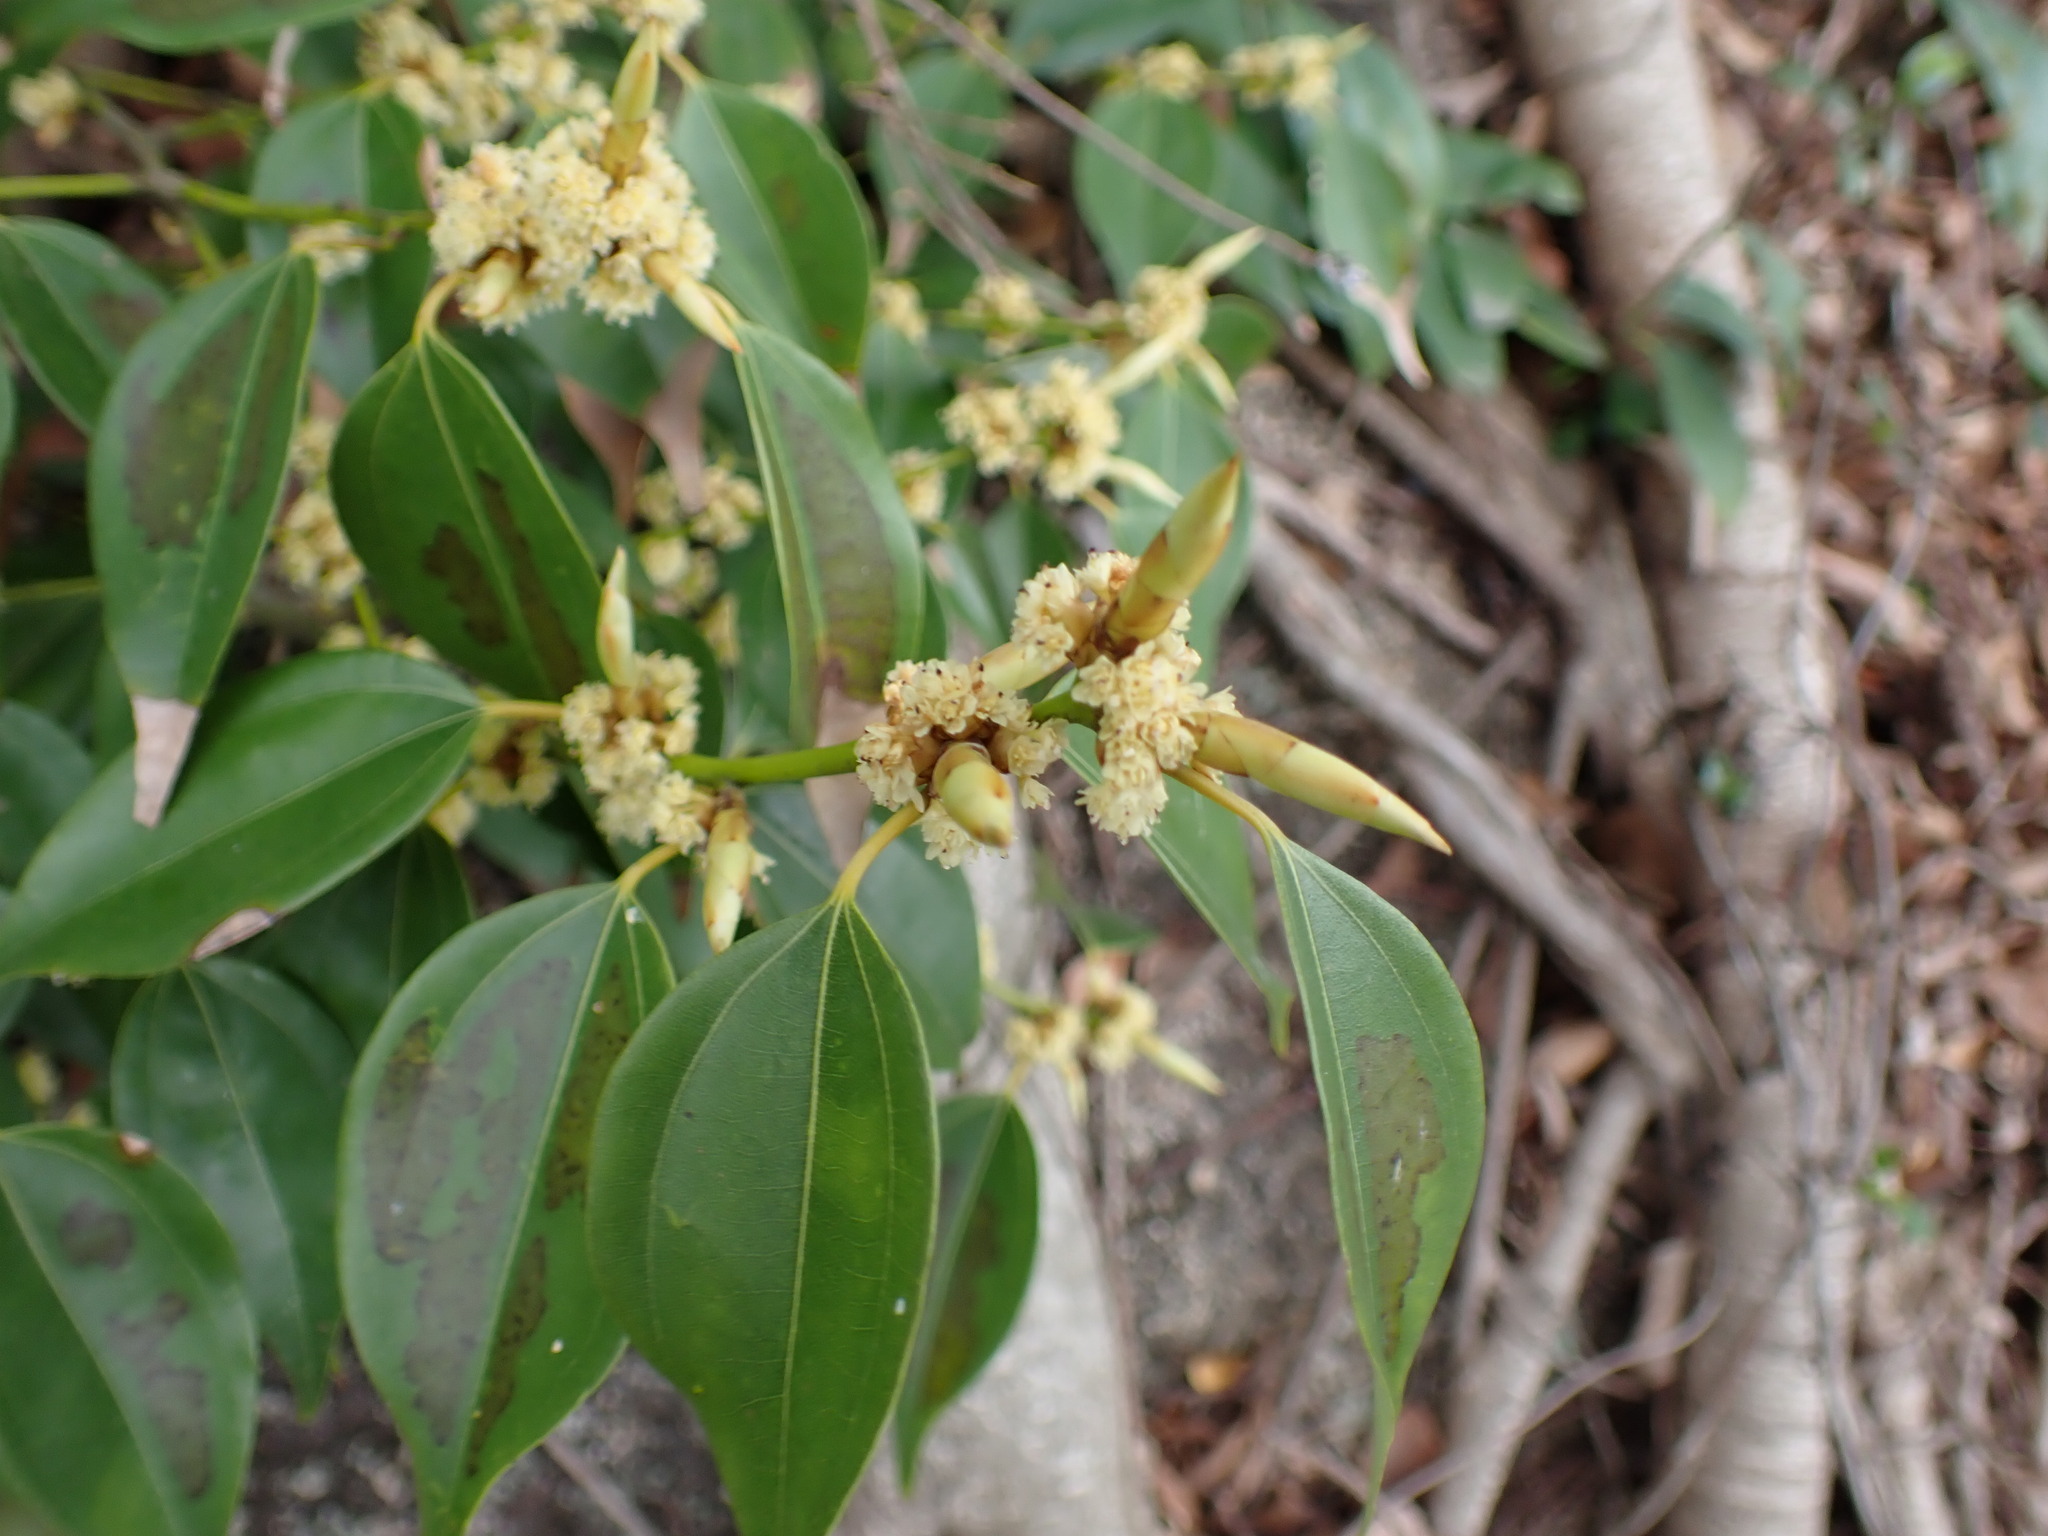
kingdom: Plantae
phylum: Tracheophyta
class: Magnoliopsida
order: Laurales
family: Lauraceae
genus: Lindera
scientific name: Lindera aggregata
